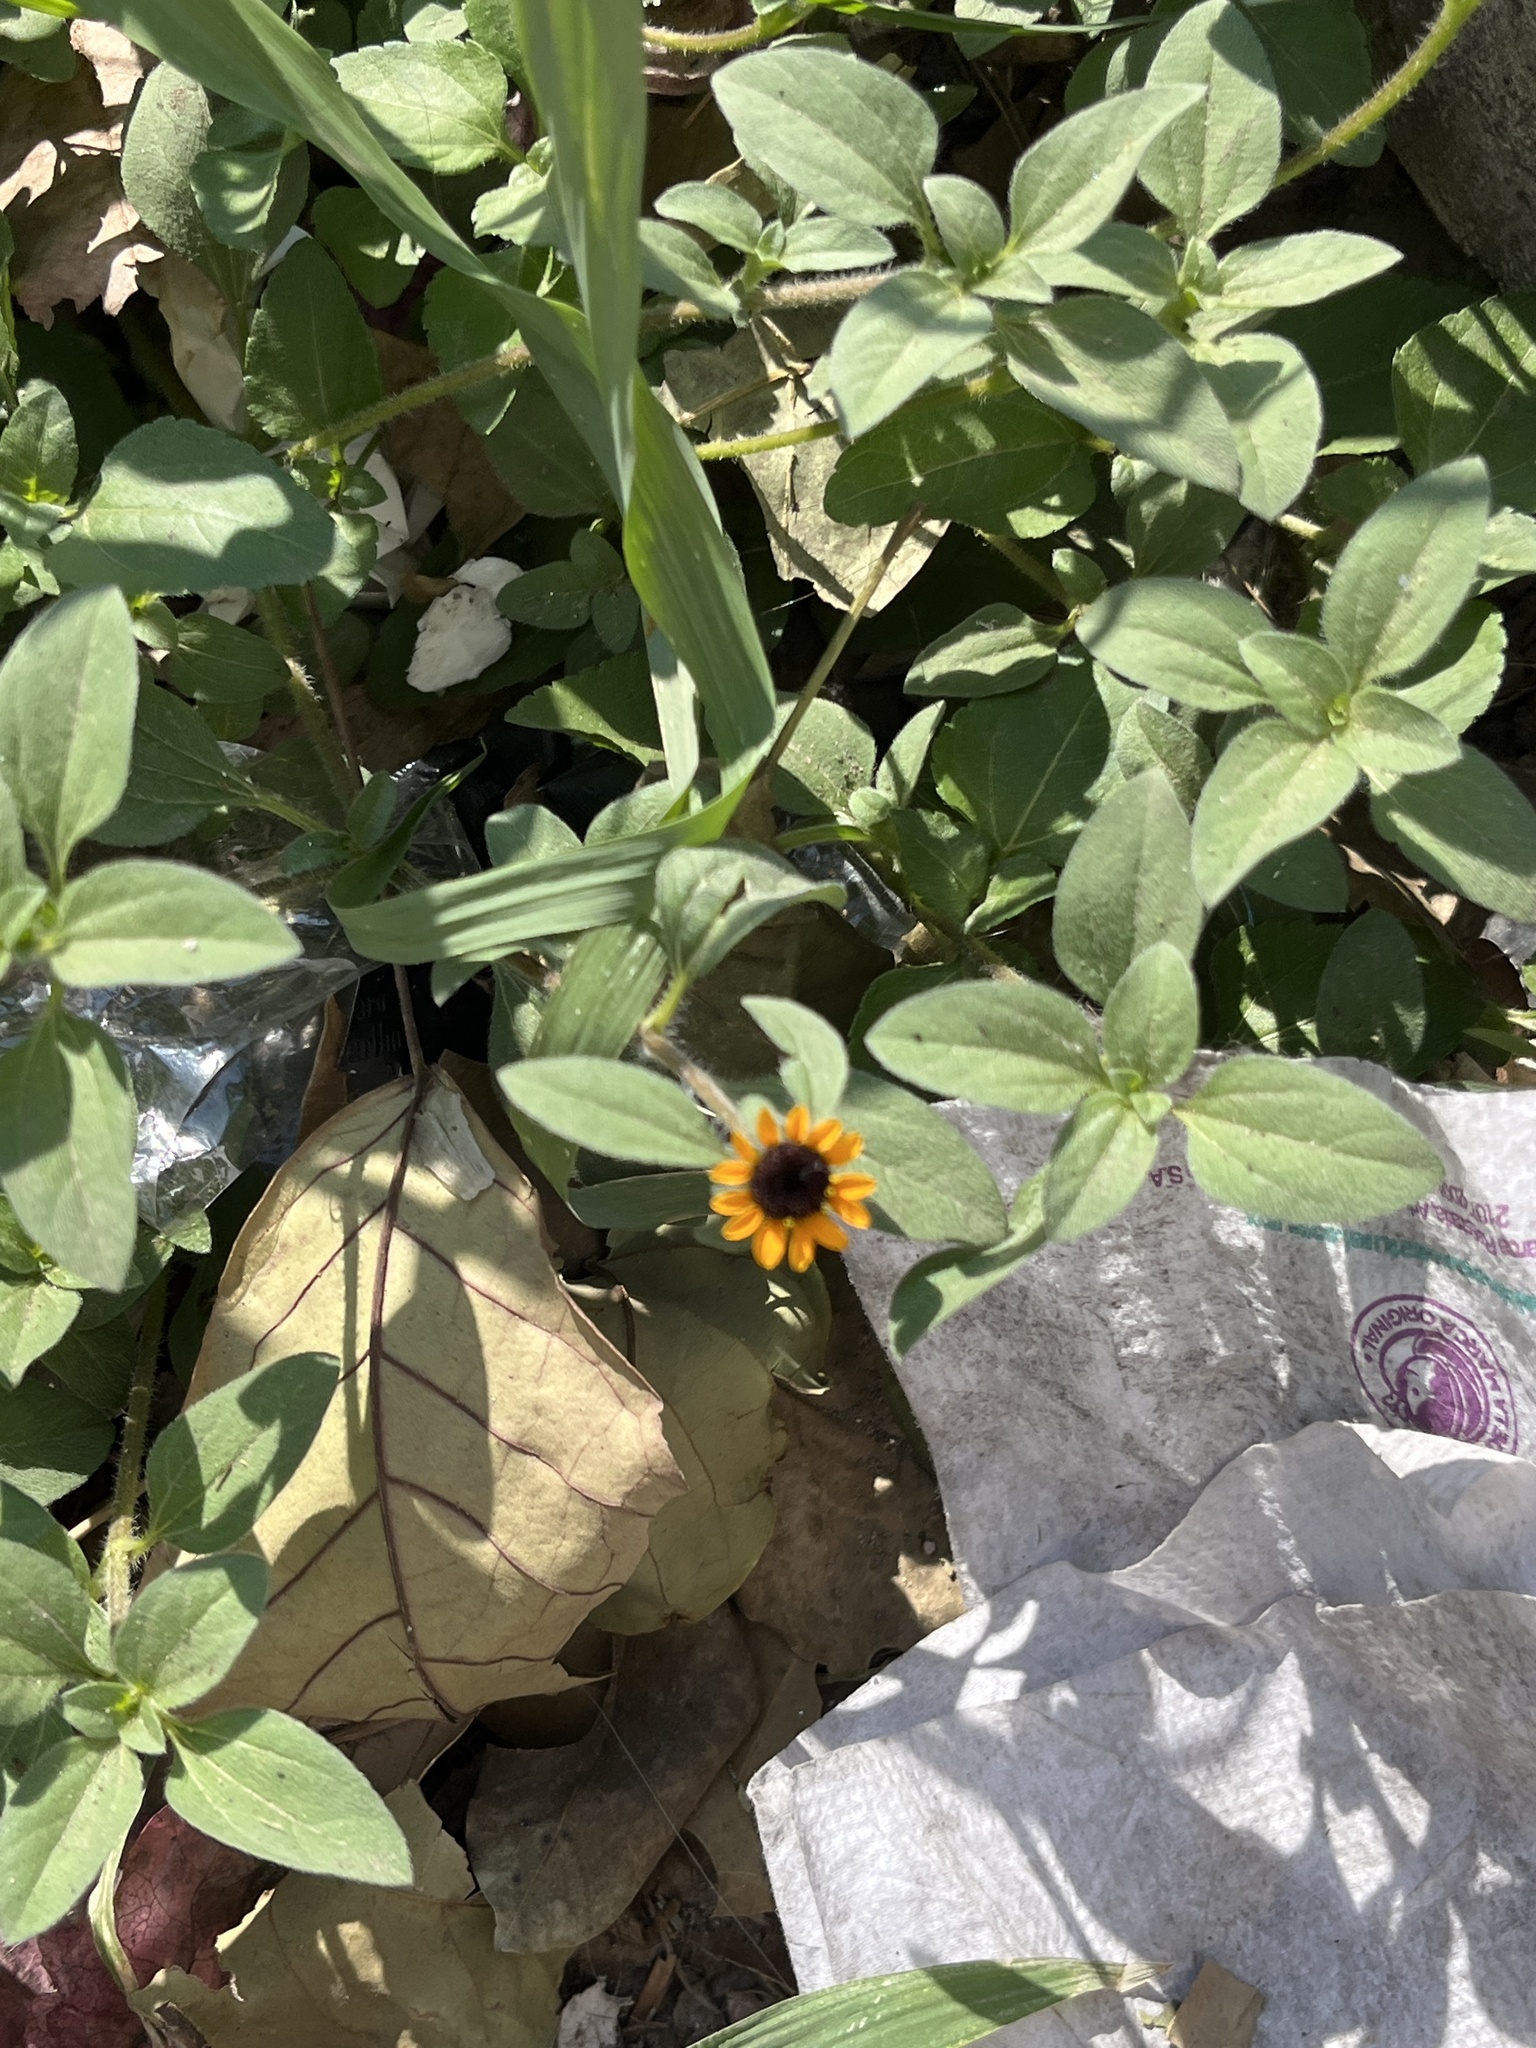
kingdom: Plantae
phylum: Tracheophyta
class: Magnoliopsida
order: Asterales
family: Asteraceae
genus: Sanvitalia
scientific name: Sanvitalia procumbens
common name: Mexican creeping zinnia
